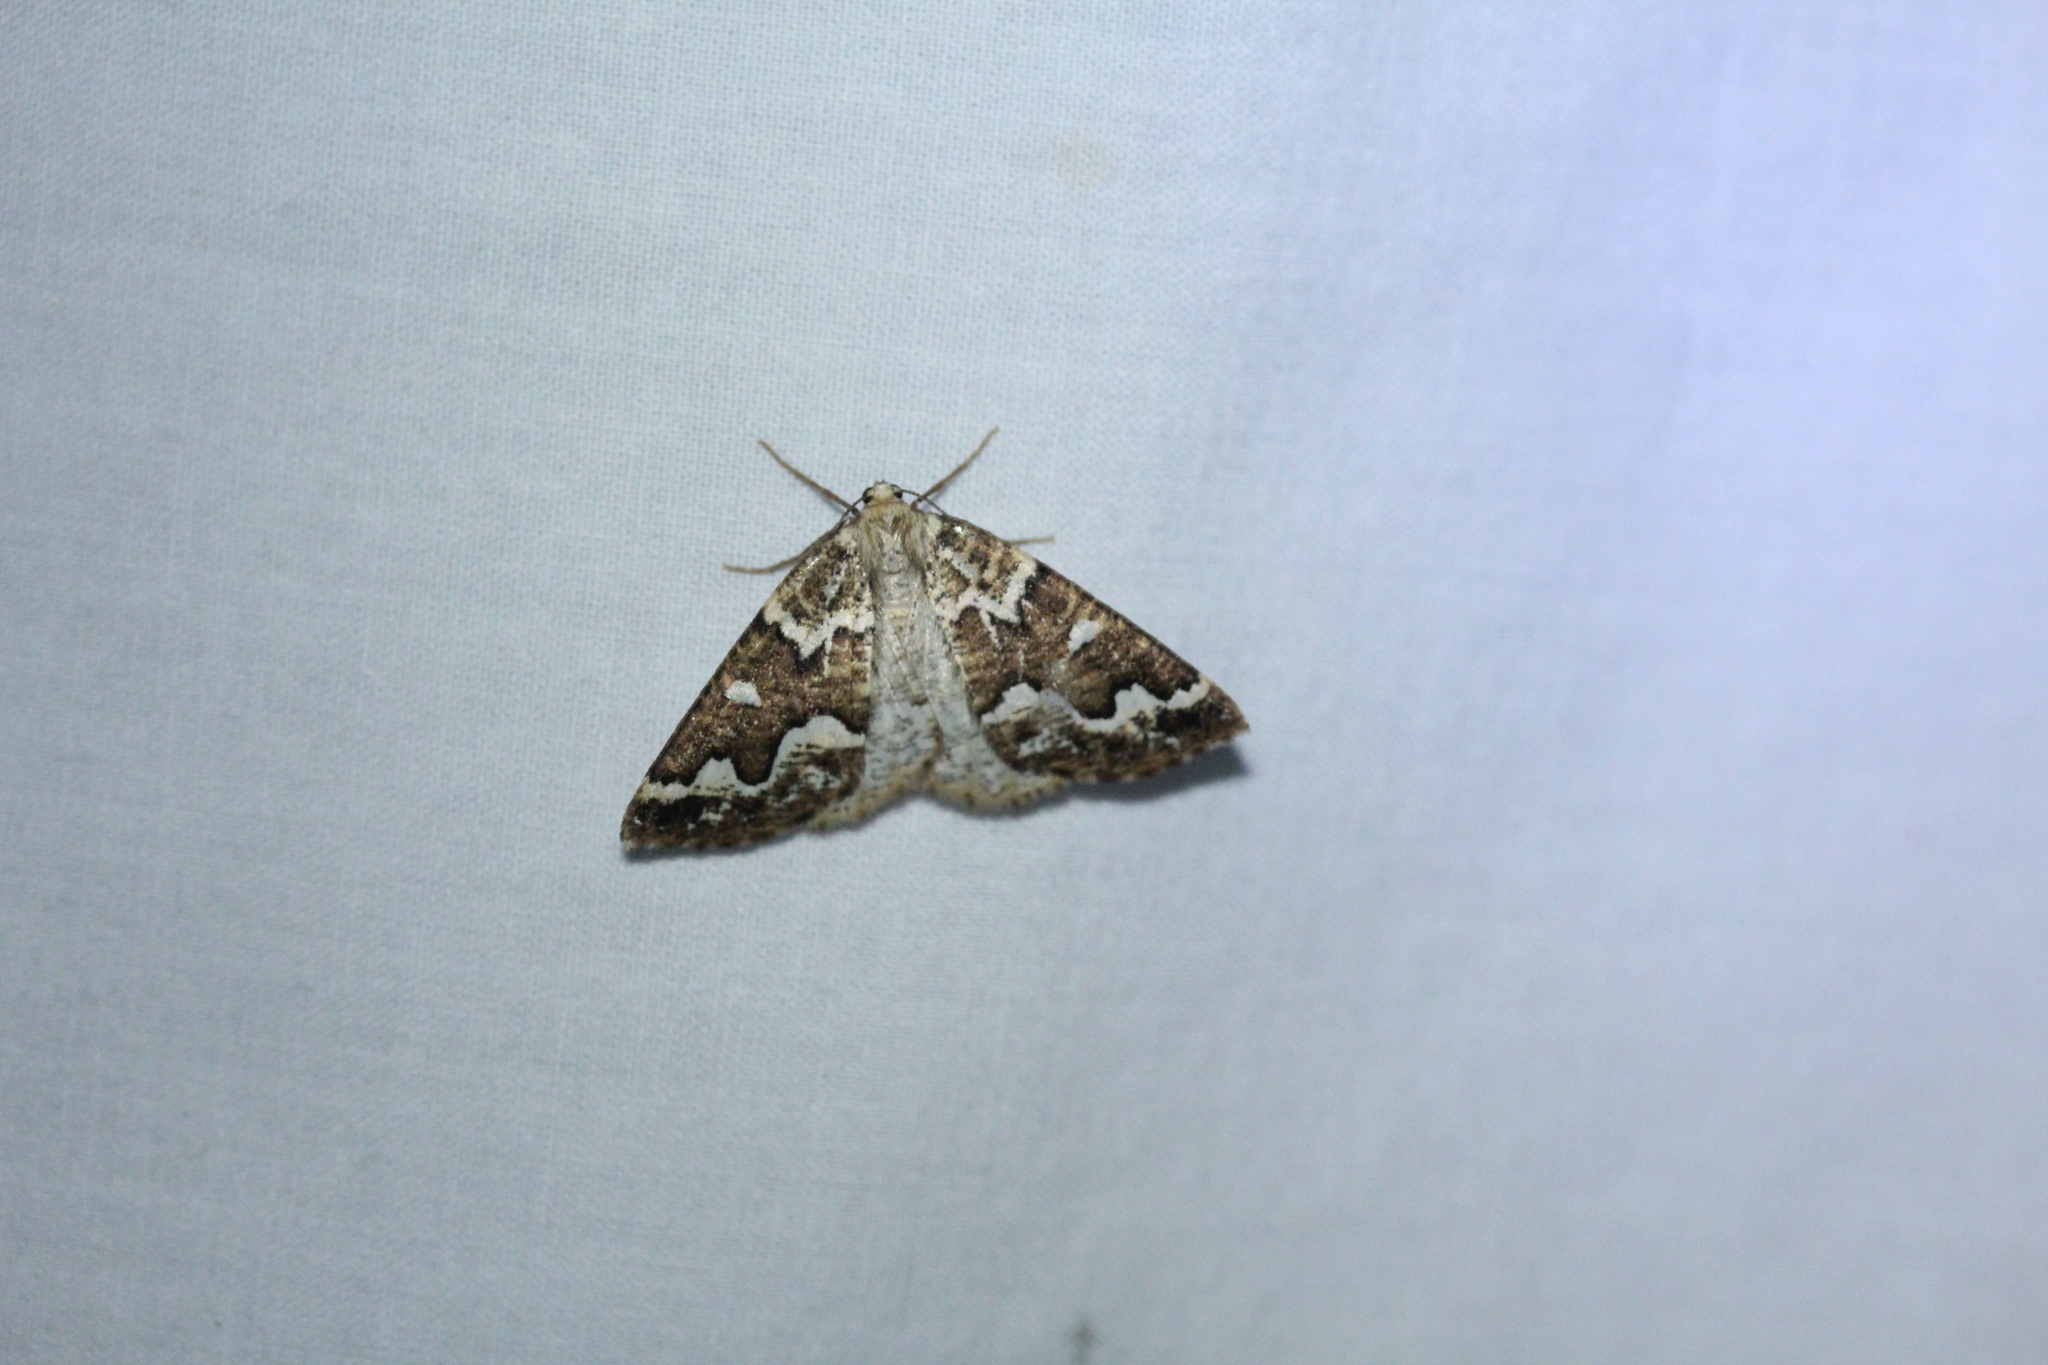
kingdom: Animalia
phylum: Arthropoda
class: Insecta
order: Lepidoptera
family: Geometridae
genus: Caripeta
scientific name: Caripeta divisata
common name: Gray spruce looper
